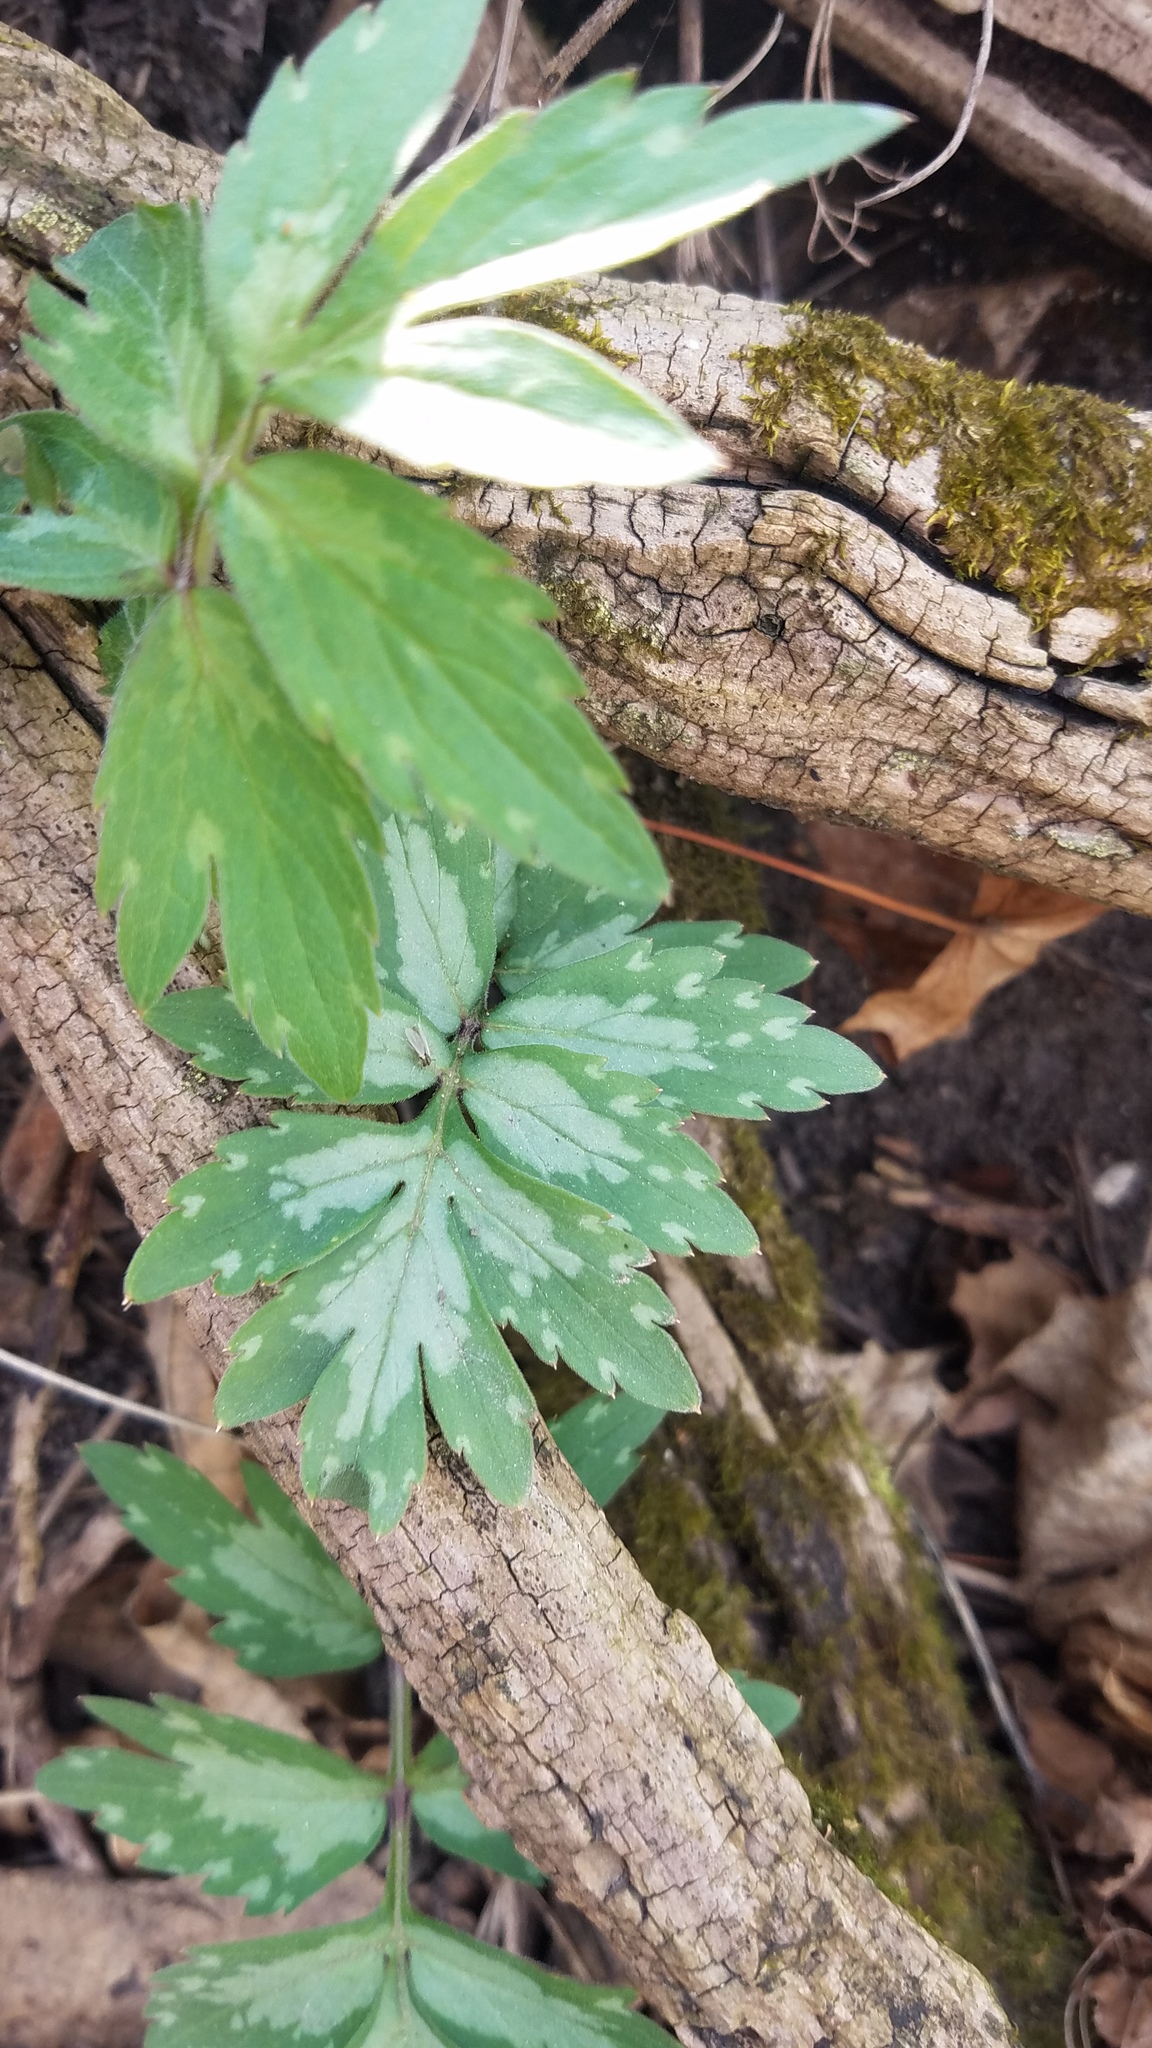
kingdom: Plantae
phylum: Tracheophyta
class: Magnoliopsida
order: Boraginales
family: Hydrophyllaceae
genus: Hydrophyllum
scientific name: Hydrophyllum virginianum
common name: Virginia waterleaf
